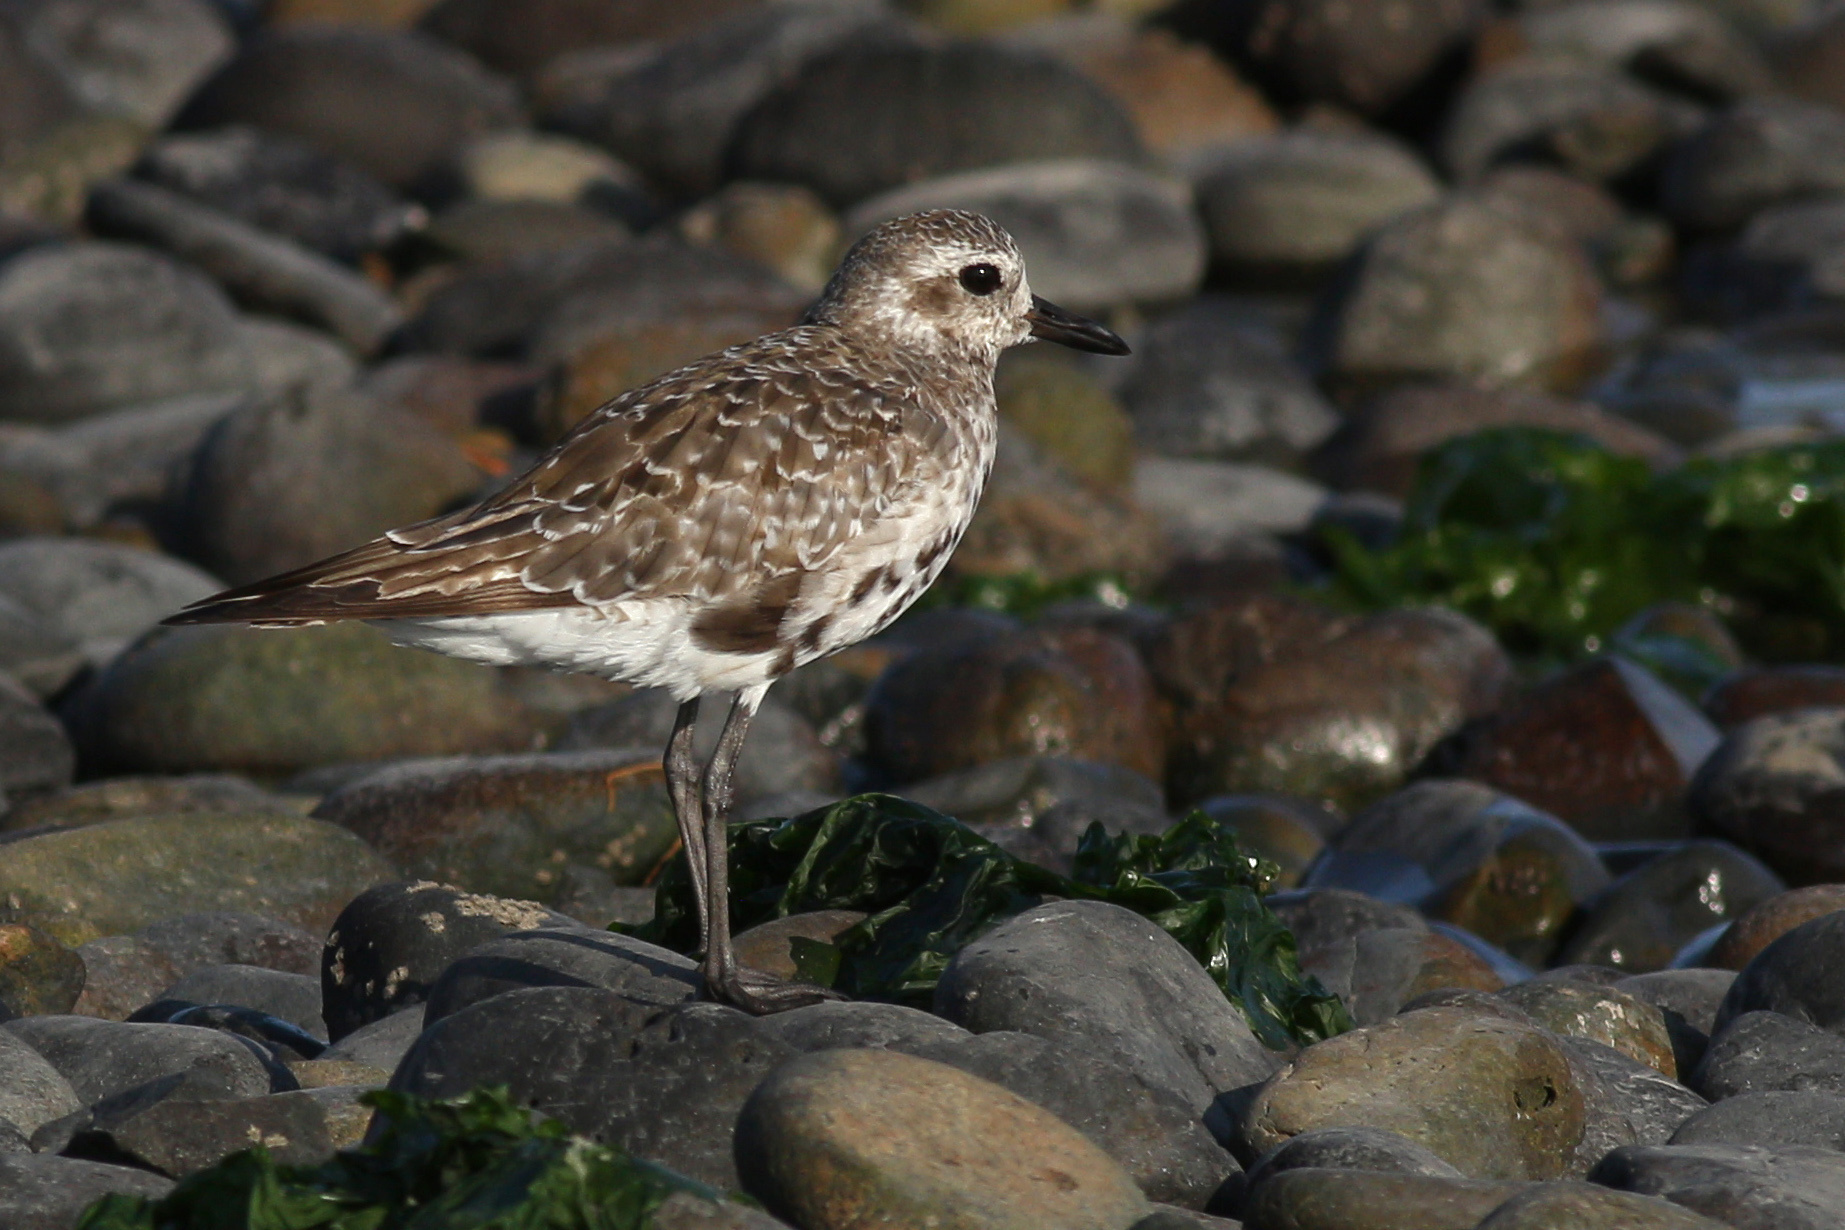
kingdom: Animalia
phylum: Chordata
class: Aves
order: Charadriiformes
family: Charadriidae
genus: Pluvialis
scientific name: Pluvialis squatarola
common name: Grey plover
